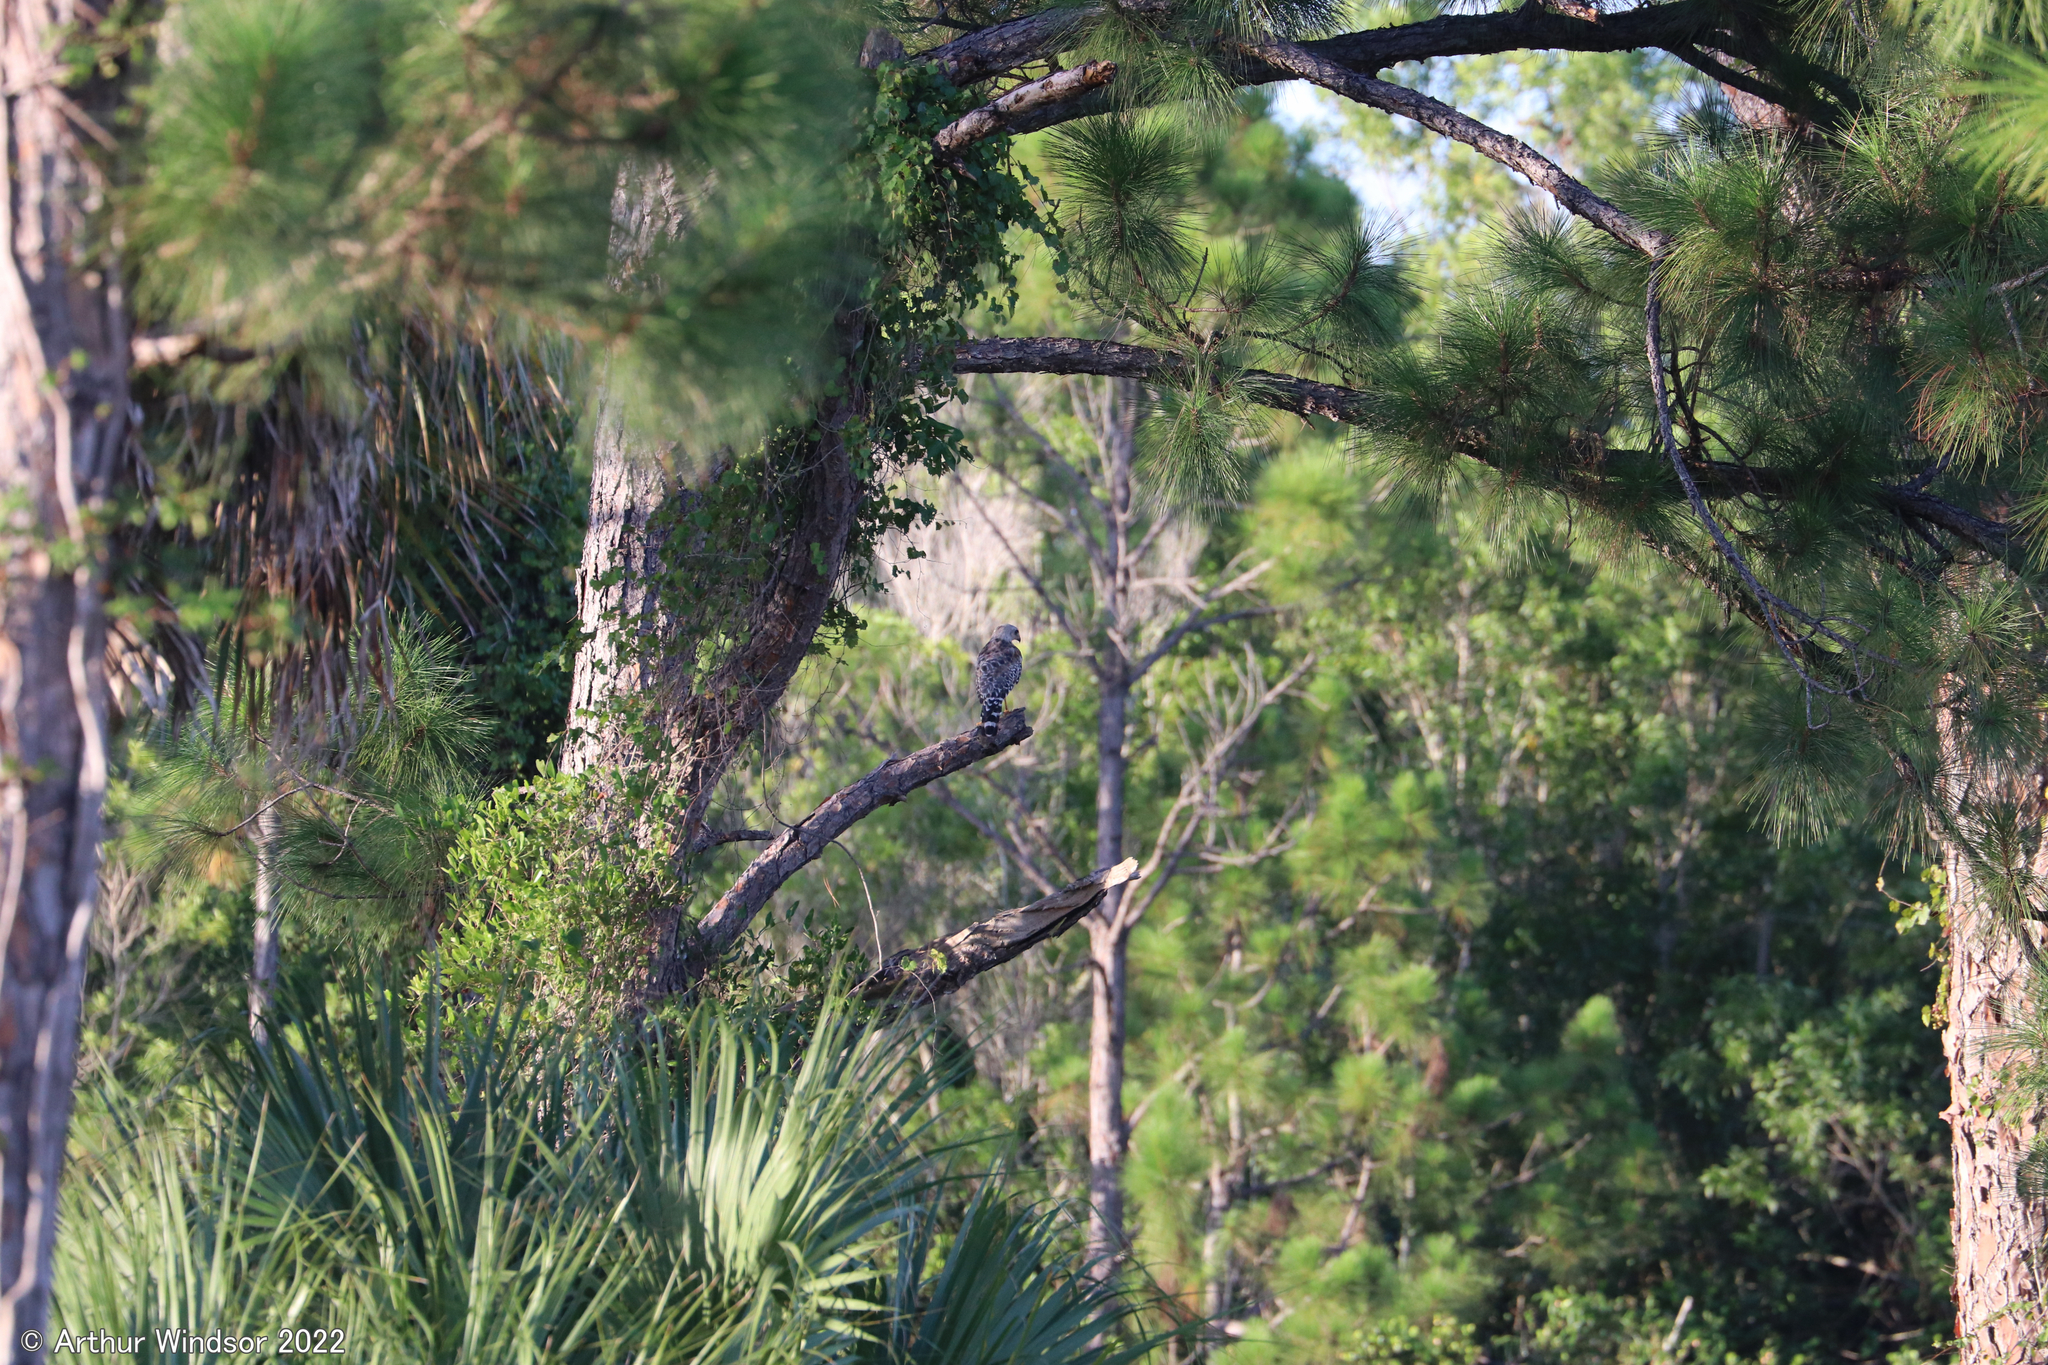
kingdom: Animalia
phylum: Chordata
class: Aves
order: Accipitriformes
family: Accipitridae
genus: Buteo
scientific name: Buteo lineatus
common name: Red-shouldered hawk
